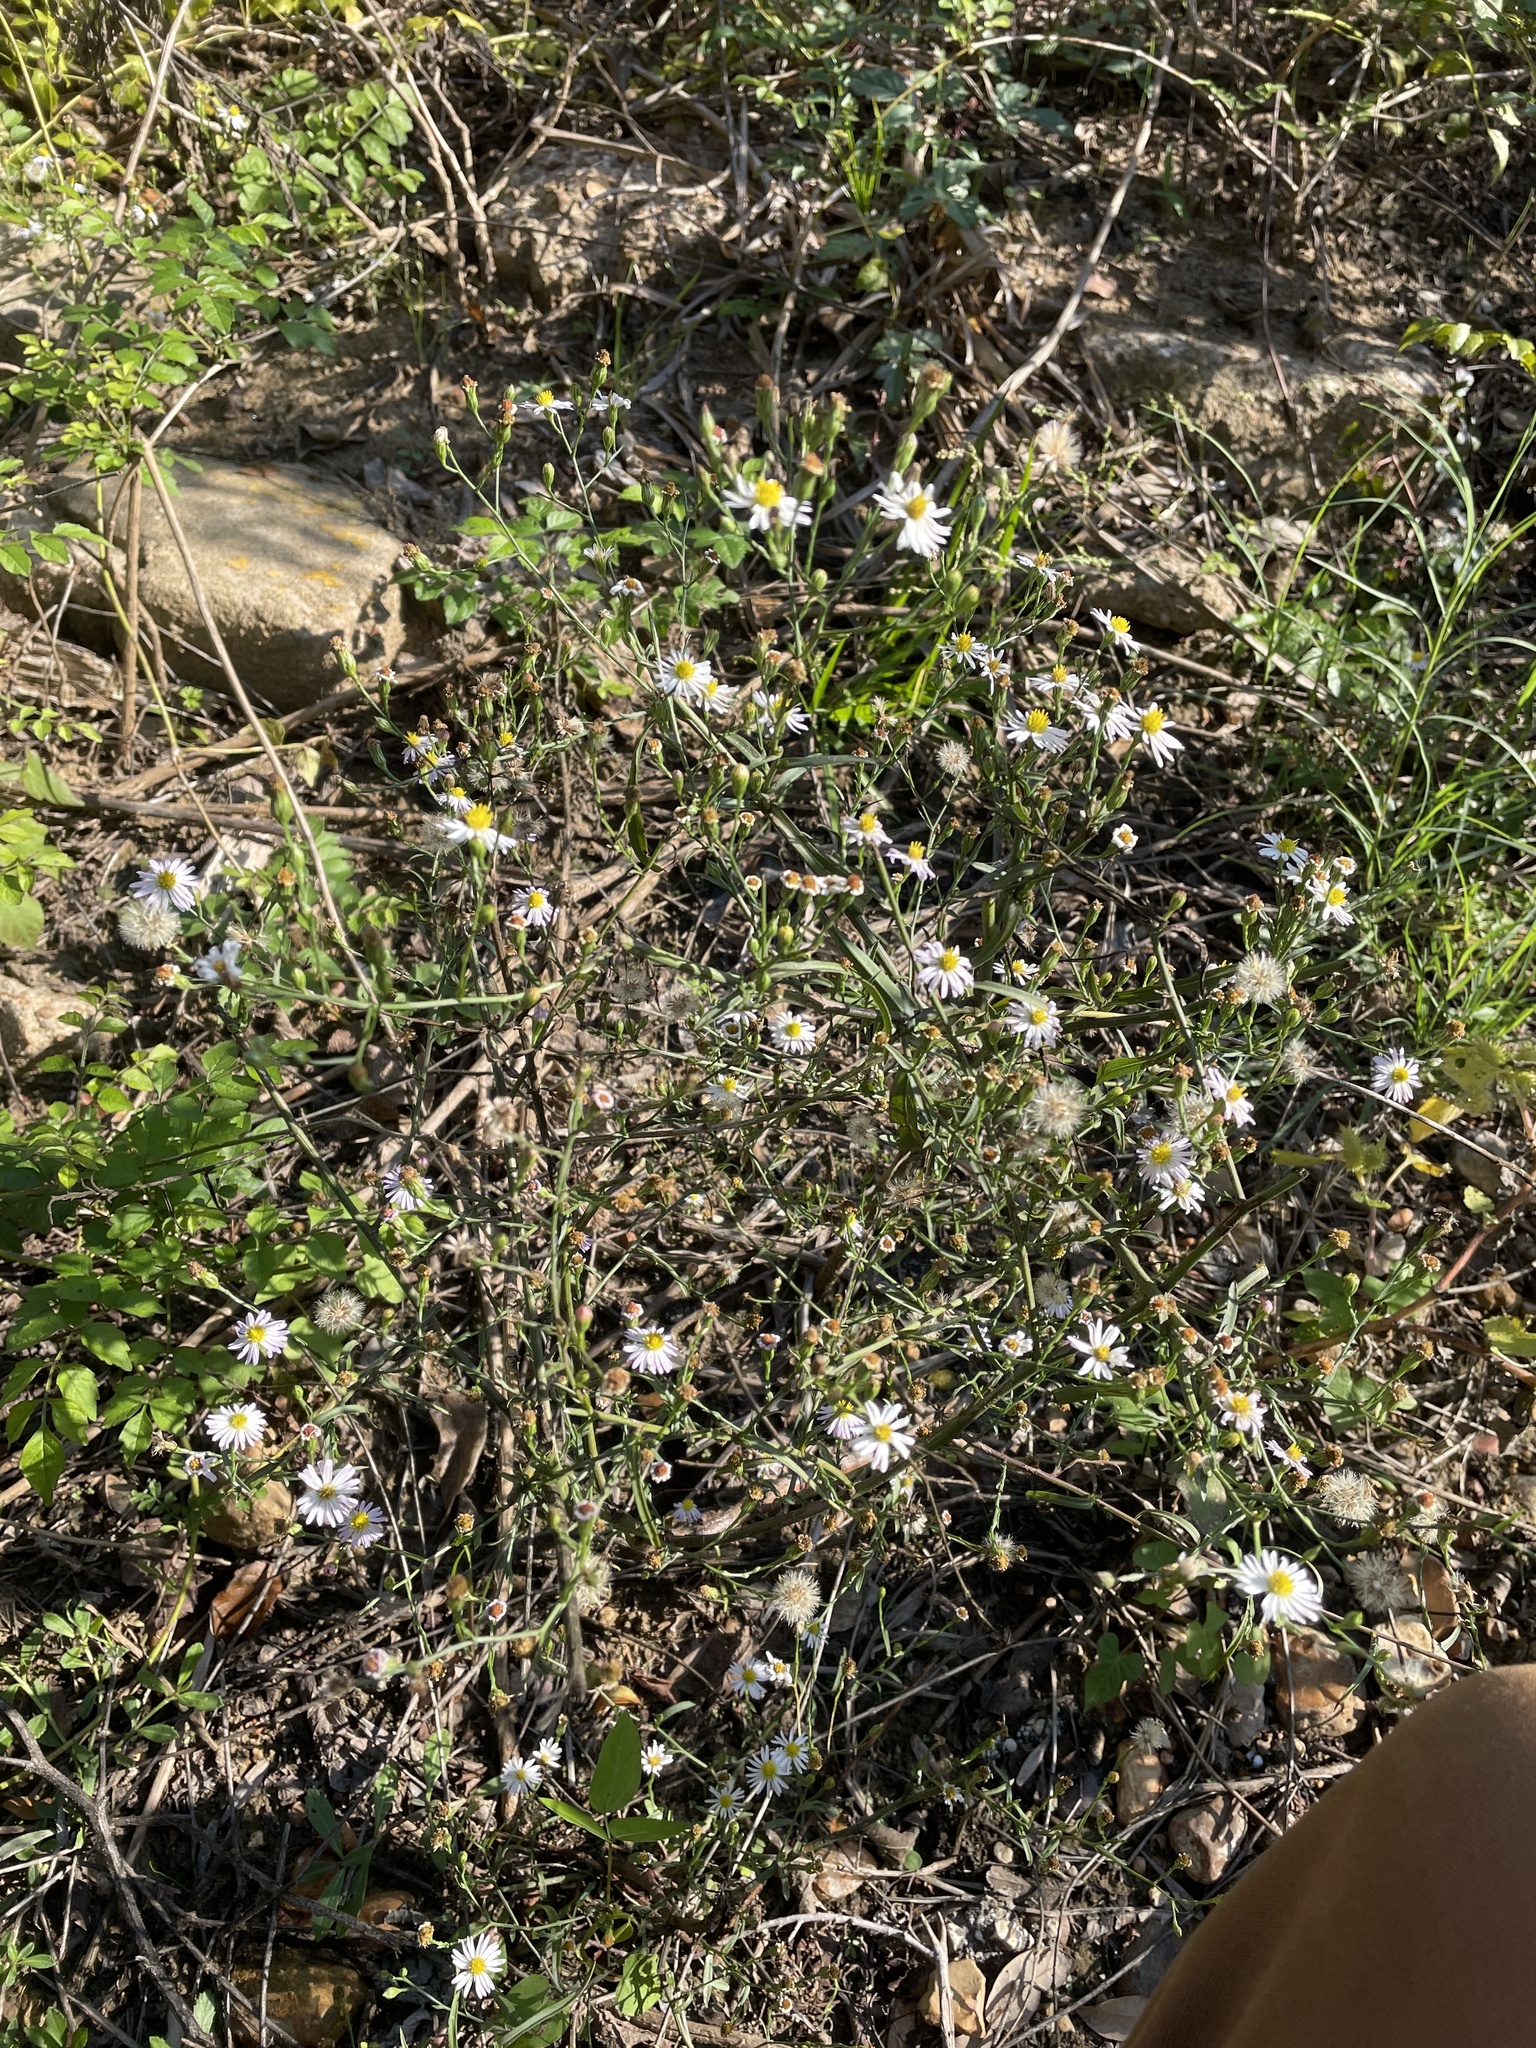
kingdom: Plantae
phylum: Tracheophyta
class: Magnoliopsida
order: Asterales
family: Asteraceae
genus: Symphyotrichum
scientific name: Symphyotrichum divaricatum
